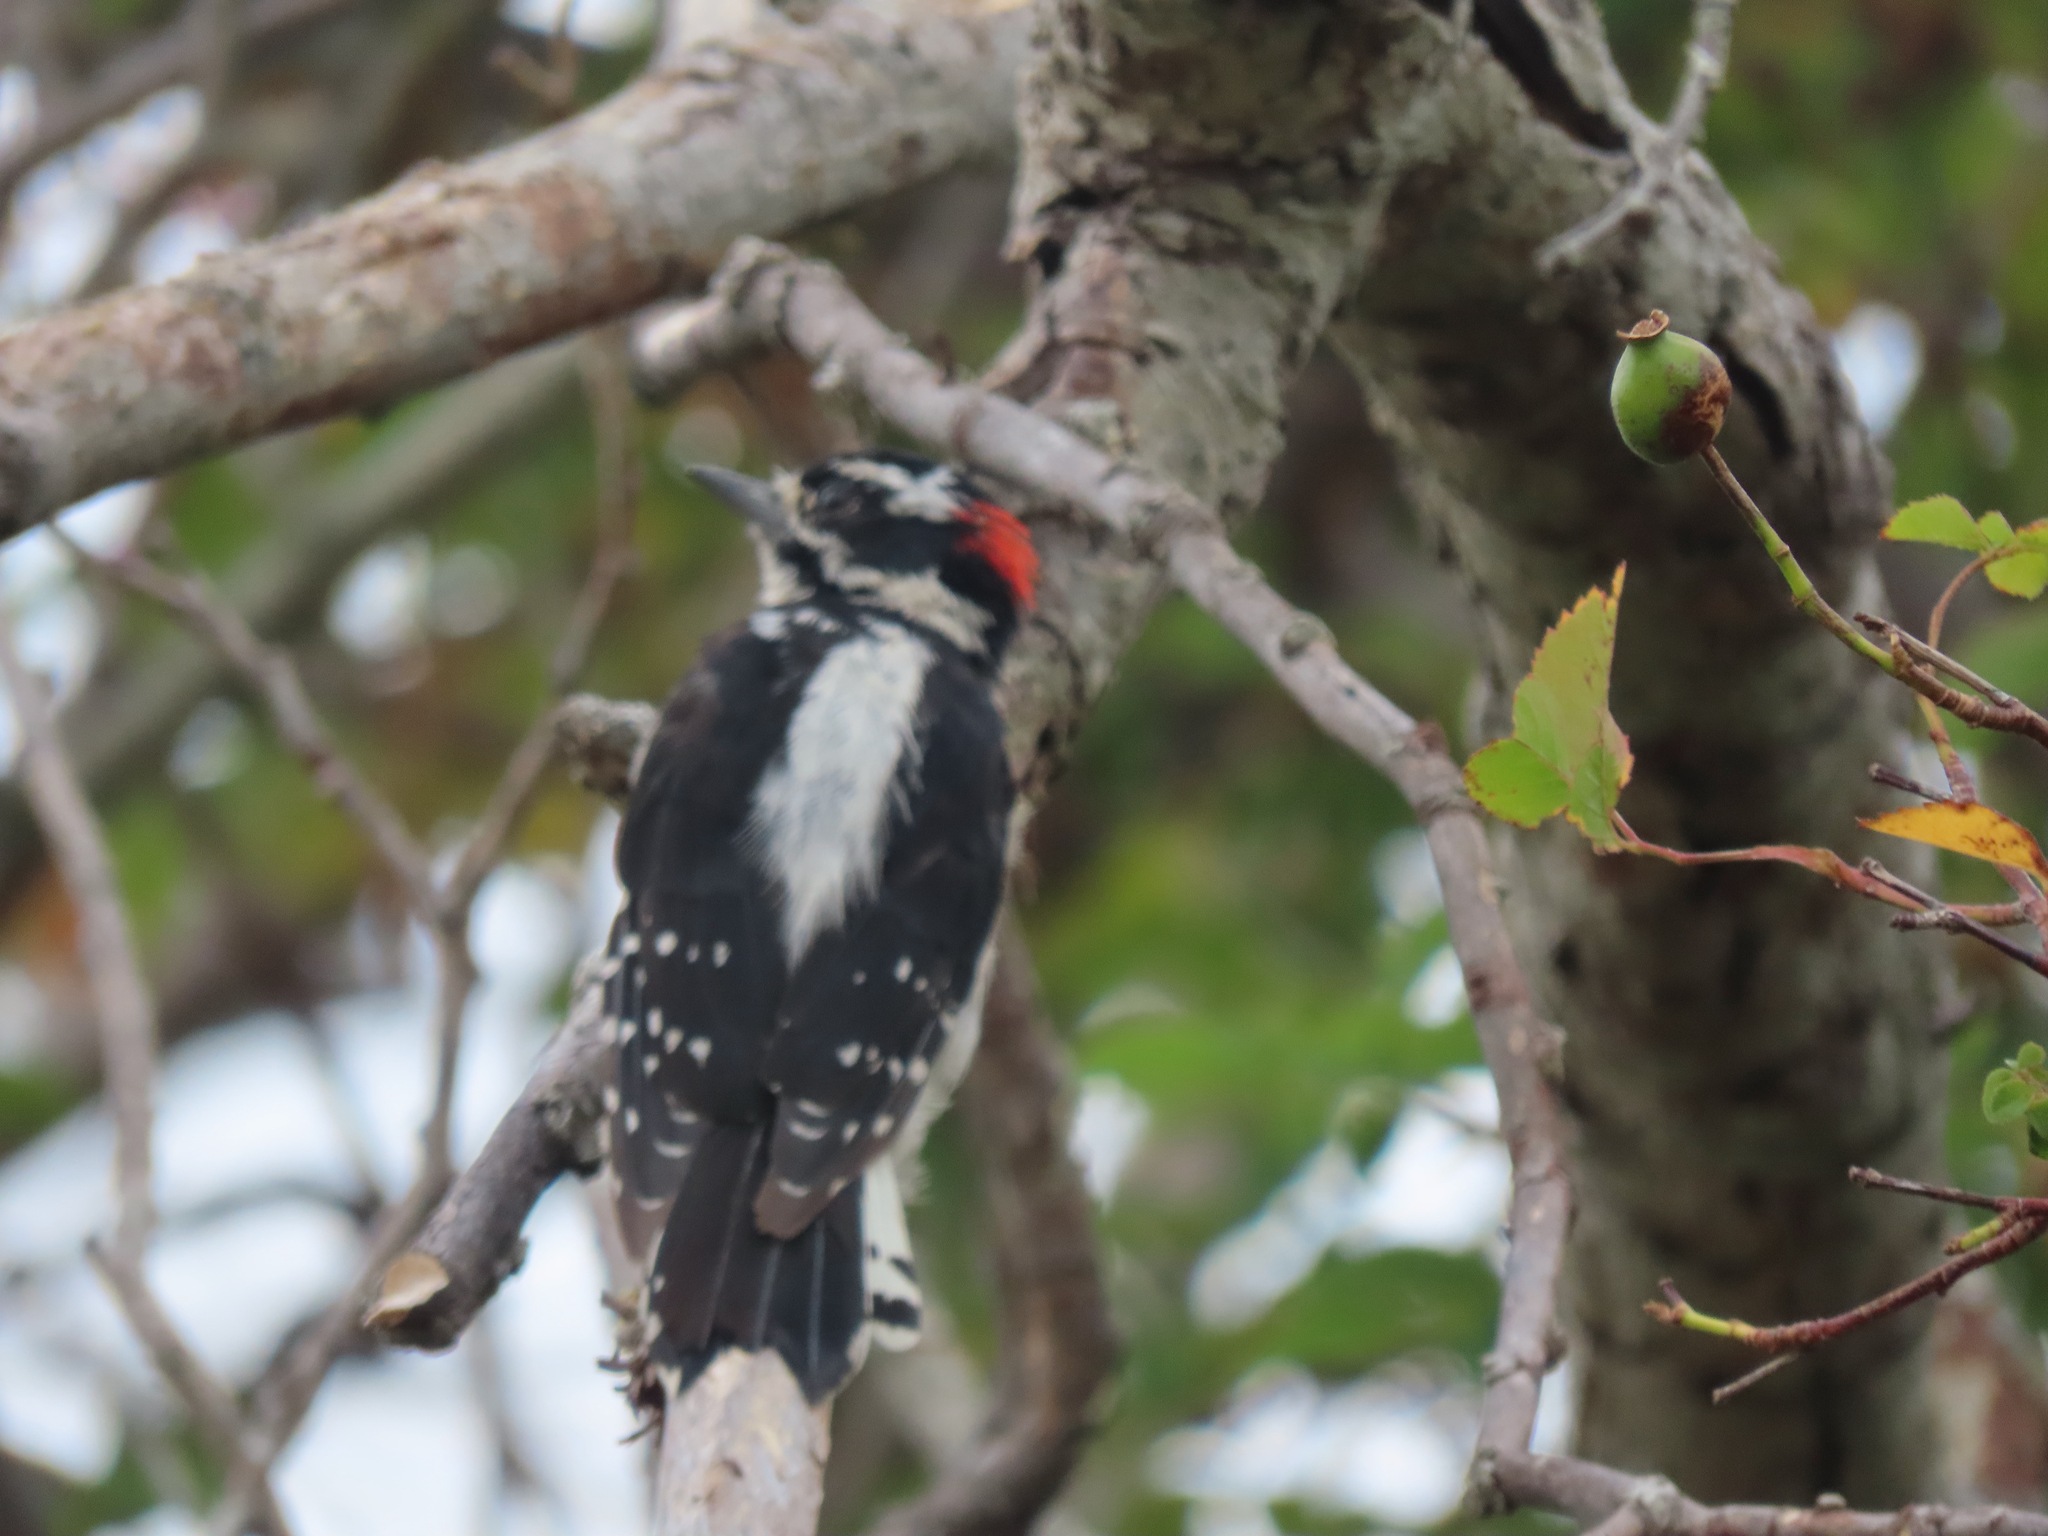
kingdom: Animalia
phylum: Chordata
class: Aves
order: Piciformes
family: Picidae
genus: Dryobates
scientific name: Dryobates pubescens
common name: Downy woodpecker
